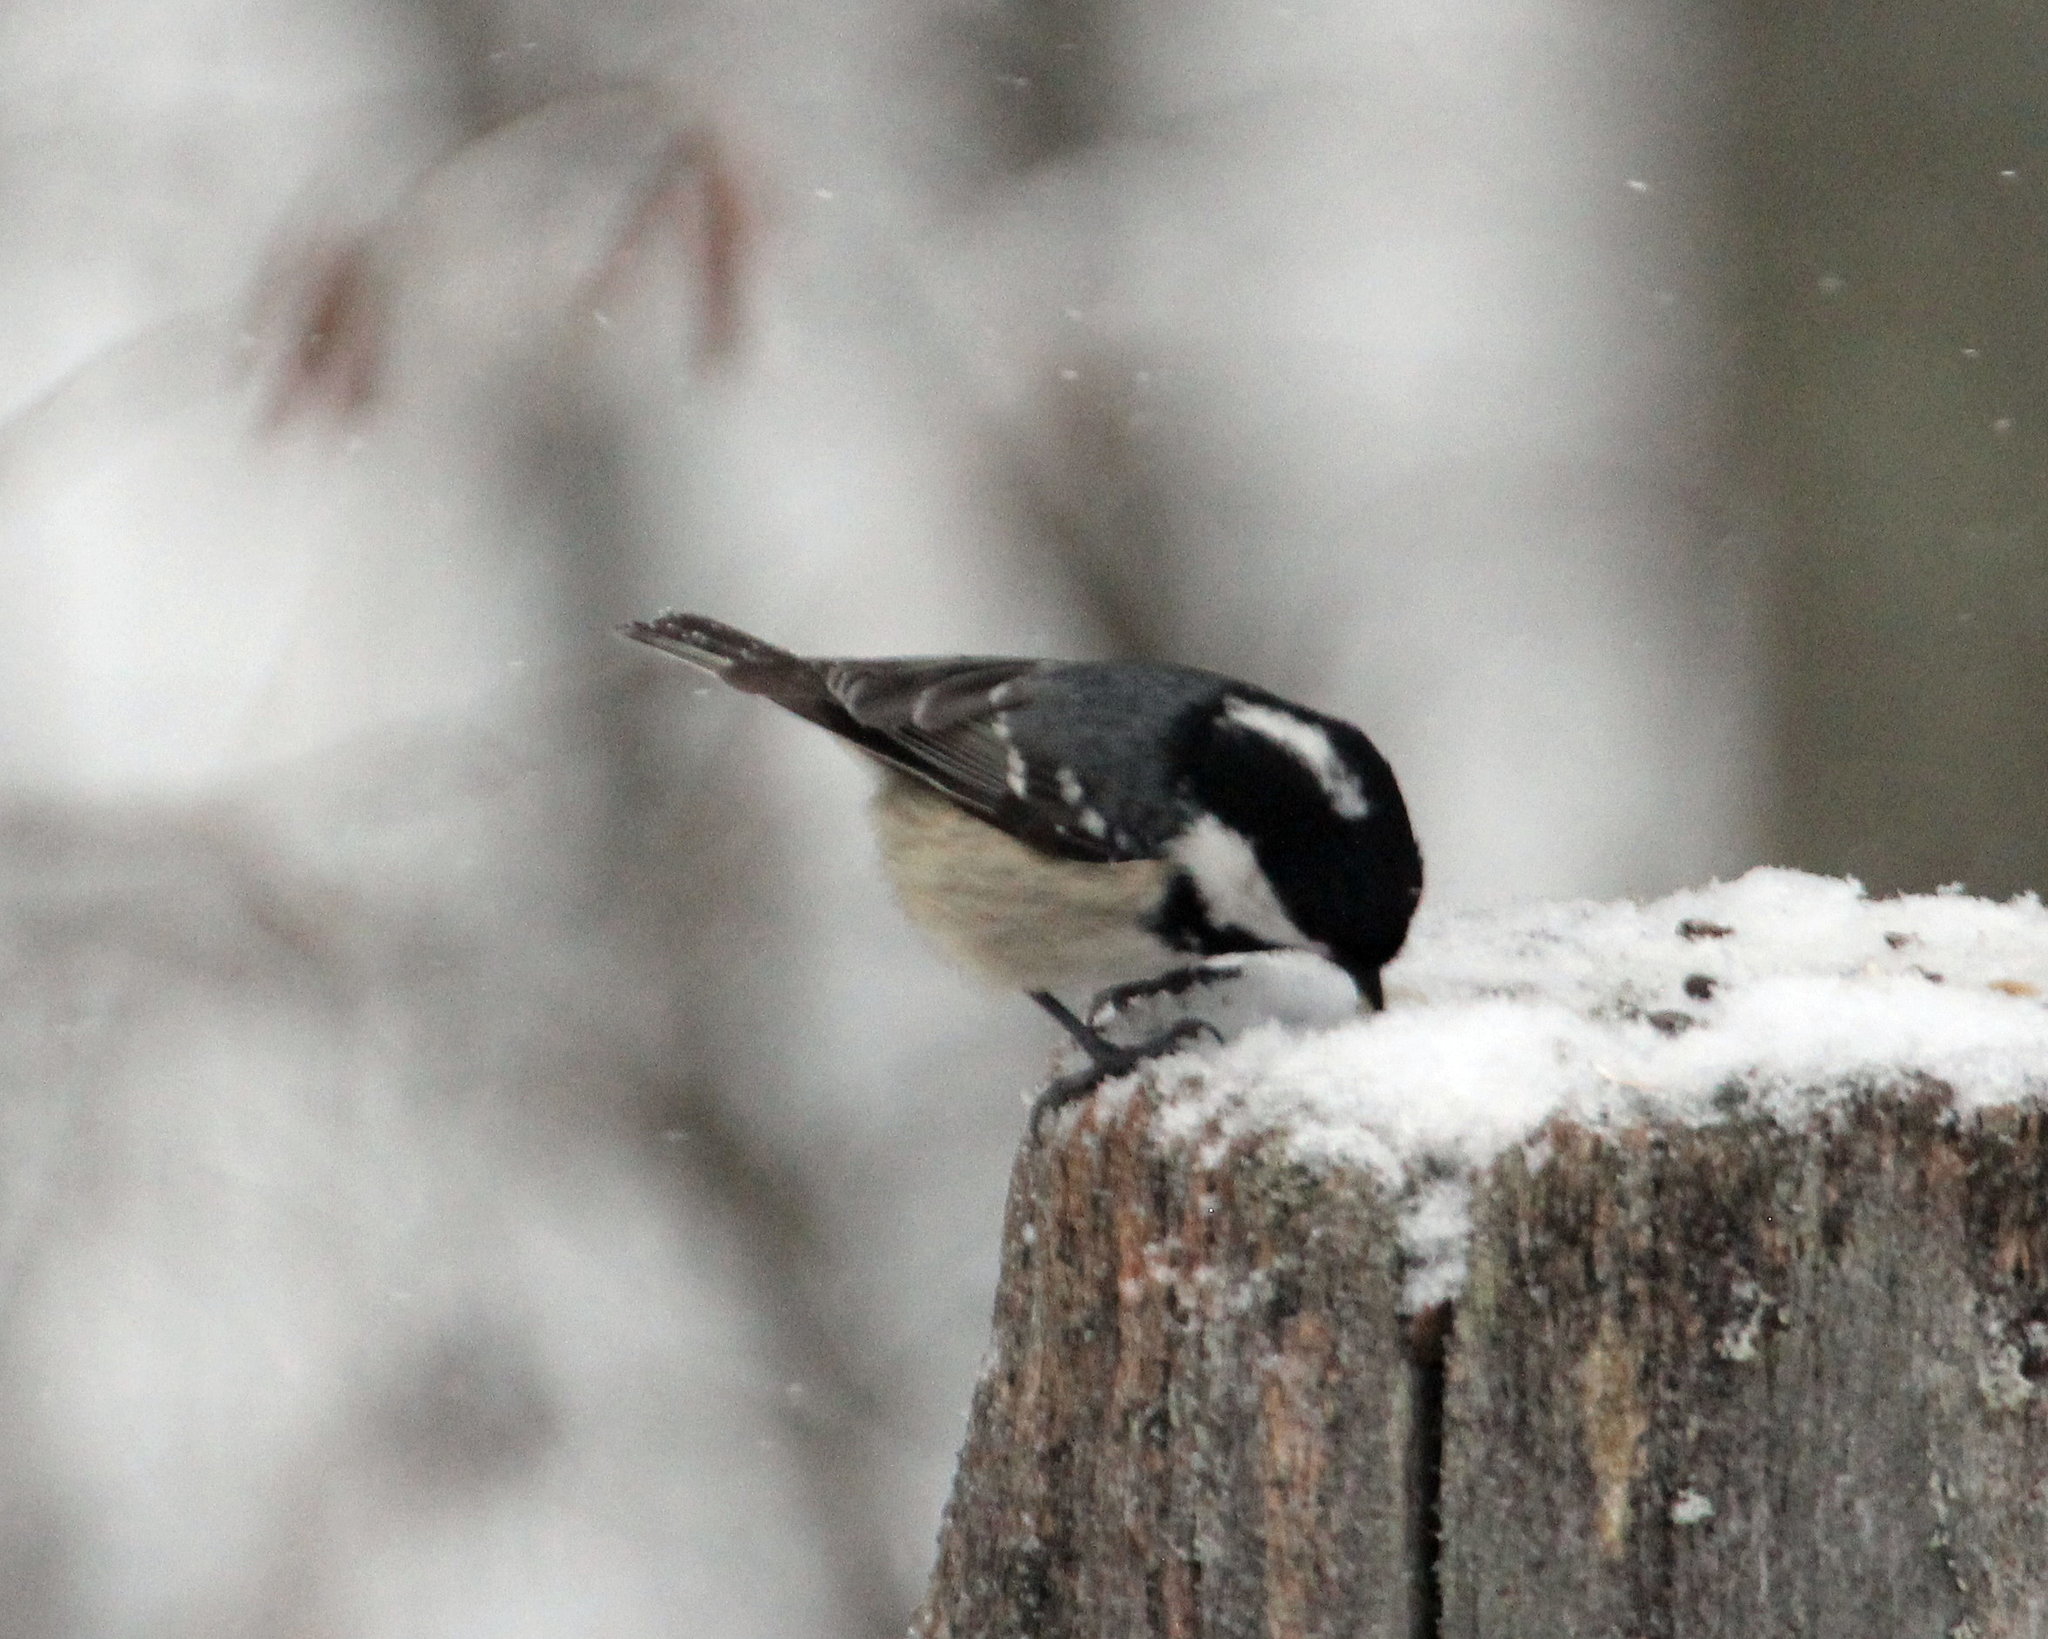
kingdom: Animalia
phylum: Chordata
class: Aves
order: Passeriformes
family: Paridae
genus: Periparus
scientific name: Periparus ater
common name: Coal tit
